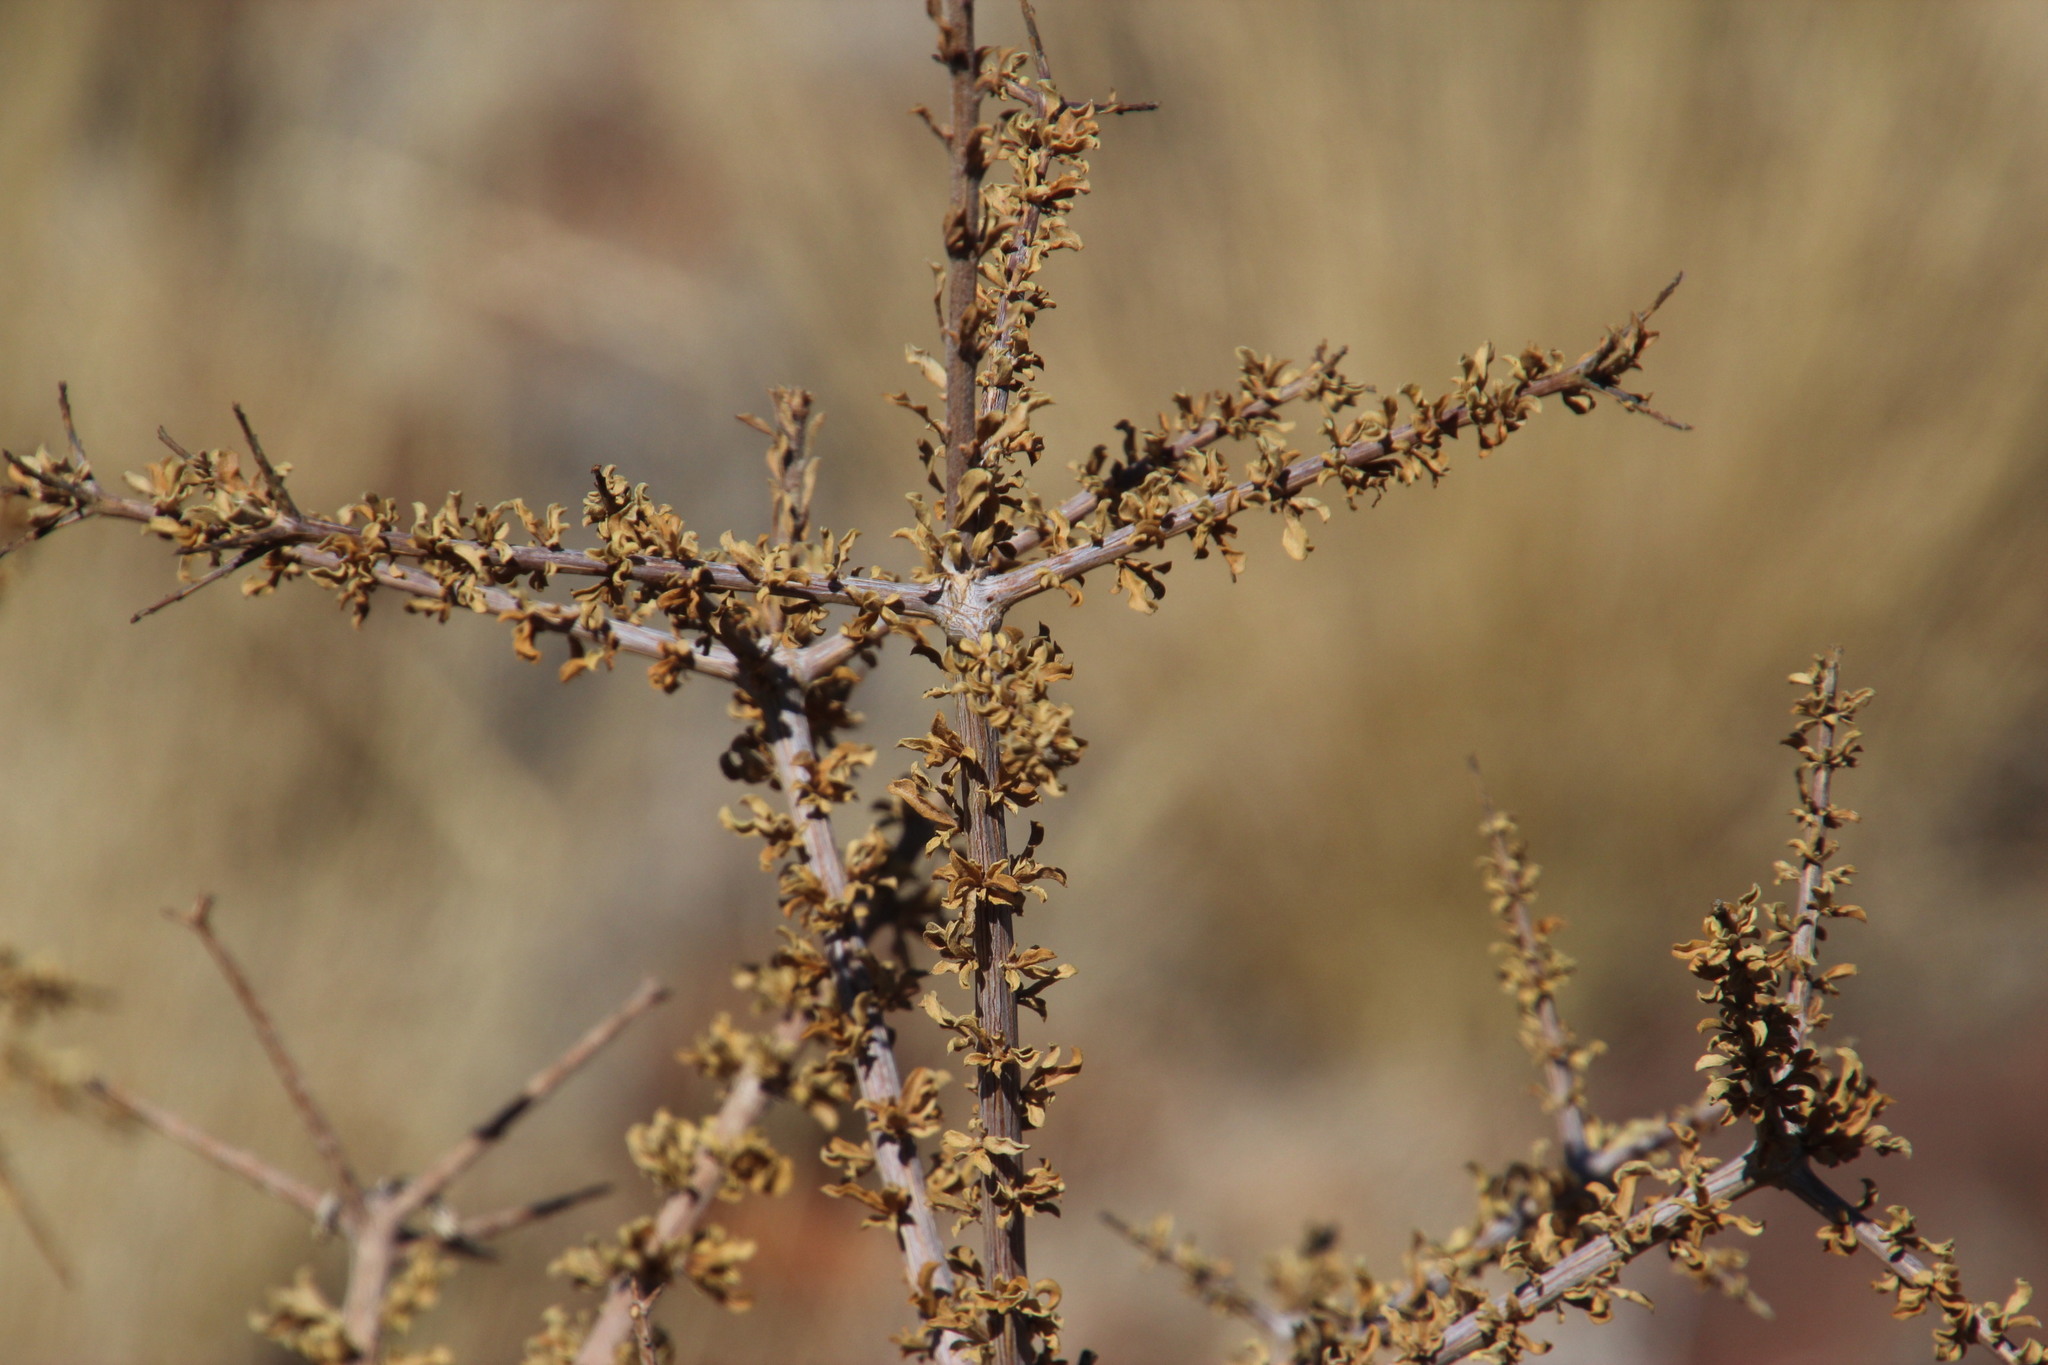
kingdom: Plantae
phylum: Tracheophyta
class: Magnoliopsida
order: Lamiales
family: Bignoniaceae
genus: Rhigozum
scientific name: Rhigozum trichotomum
